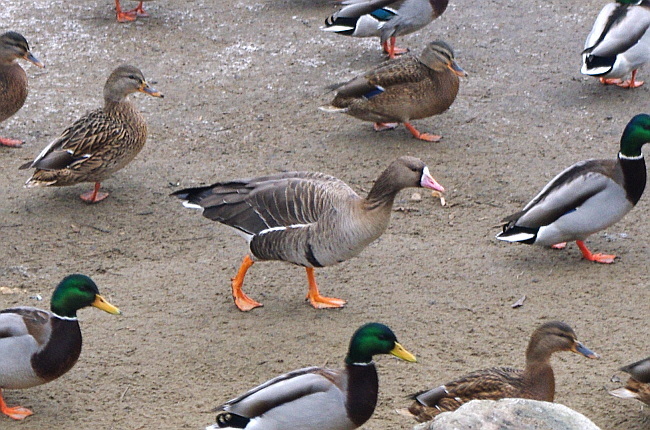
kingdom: Animalia
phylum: Chordata
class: Aves
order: Anseriformes
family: Anatidae
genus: Anser
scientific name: Anser albifrons
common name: Greater white-fronted goose
